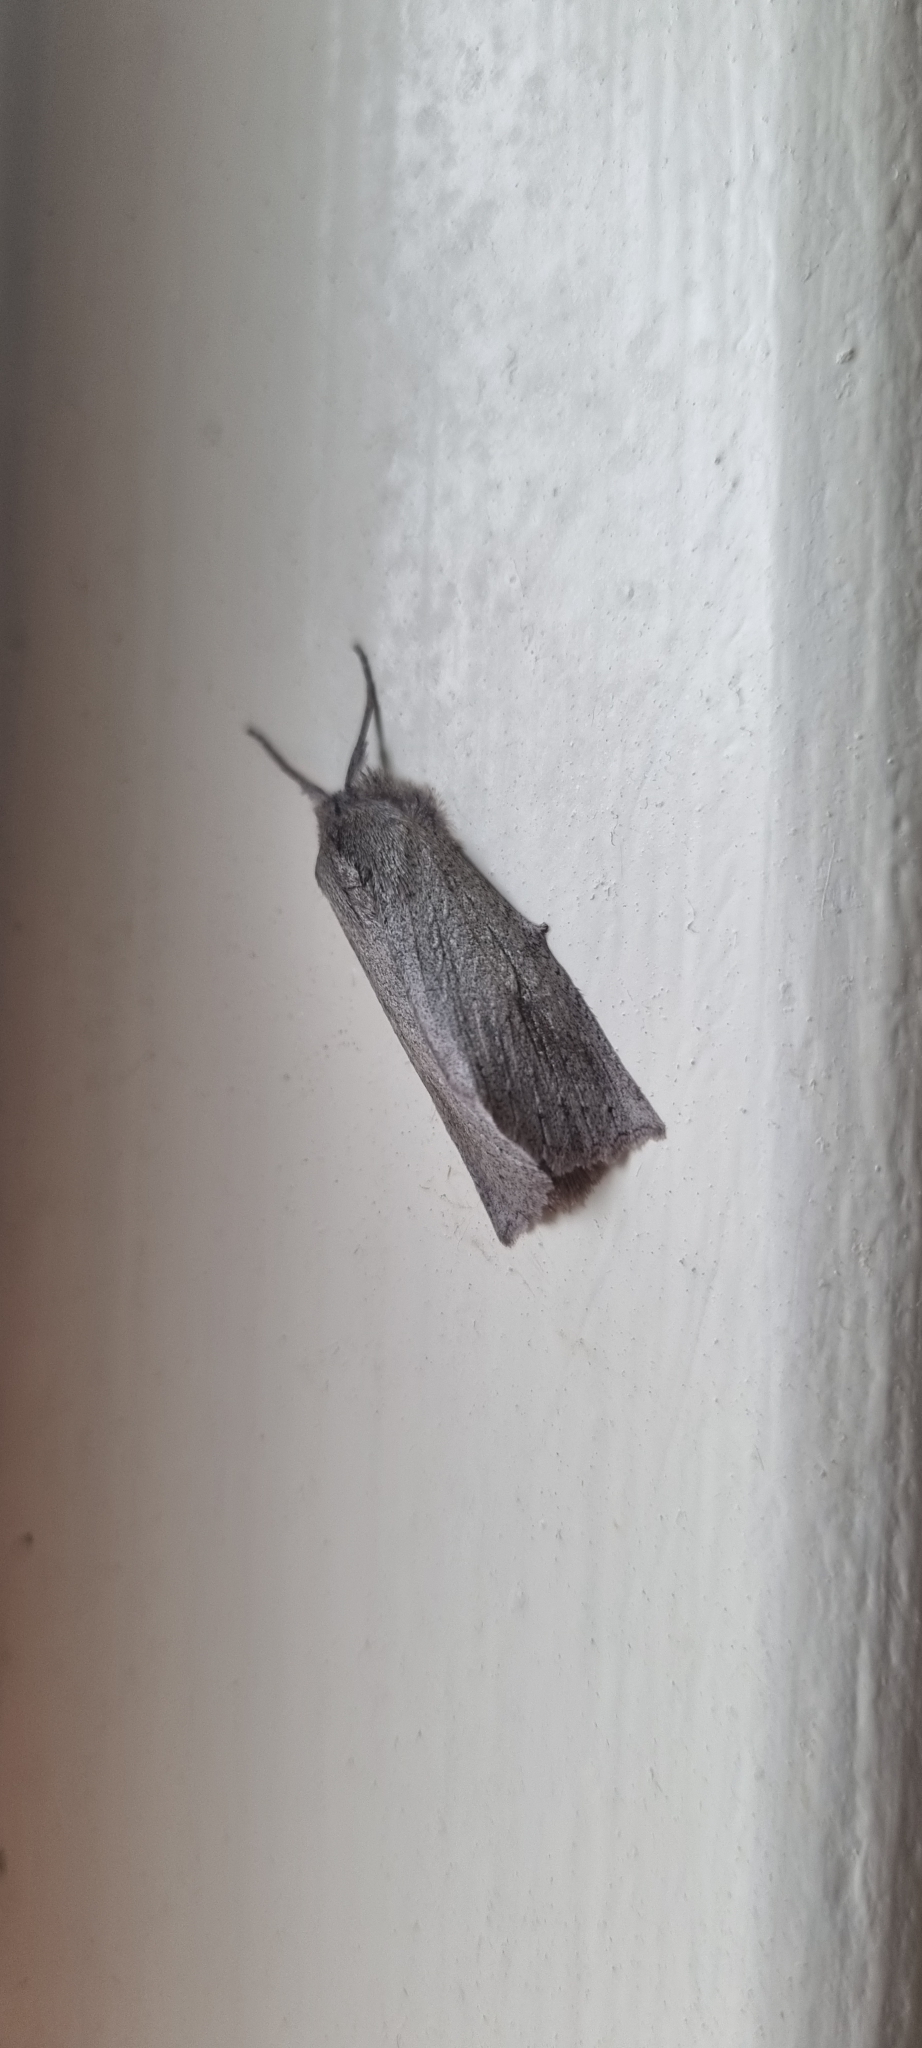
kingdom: Animalia
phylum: Arthropoda
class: Insecta
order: Lepidoptera
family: Geometridae
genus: Declana
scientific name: Declana leptomera
